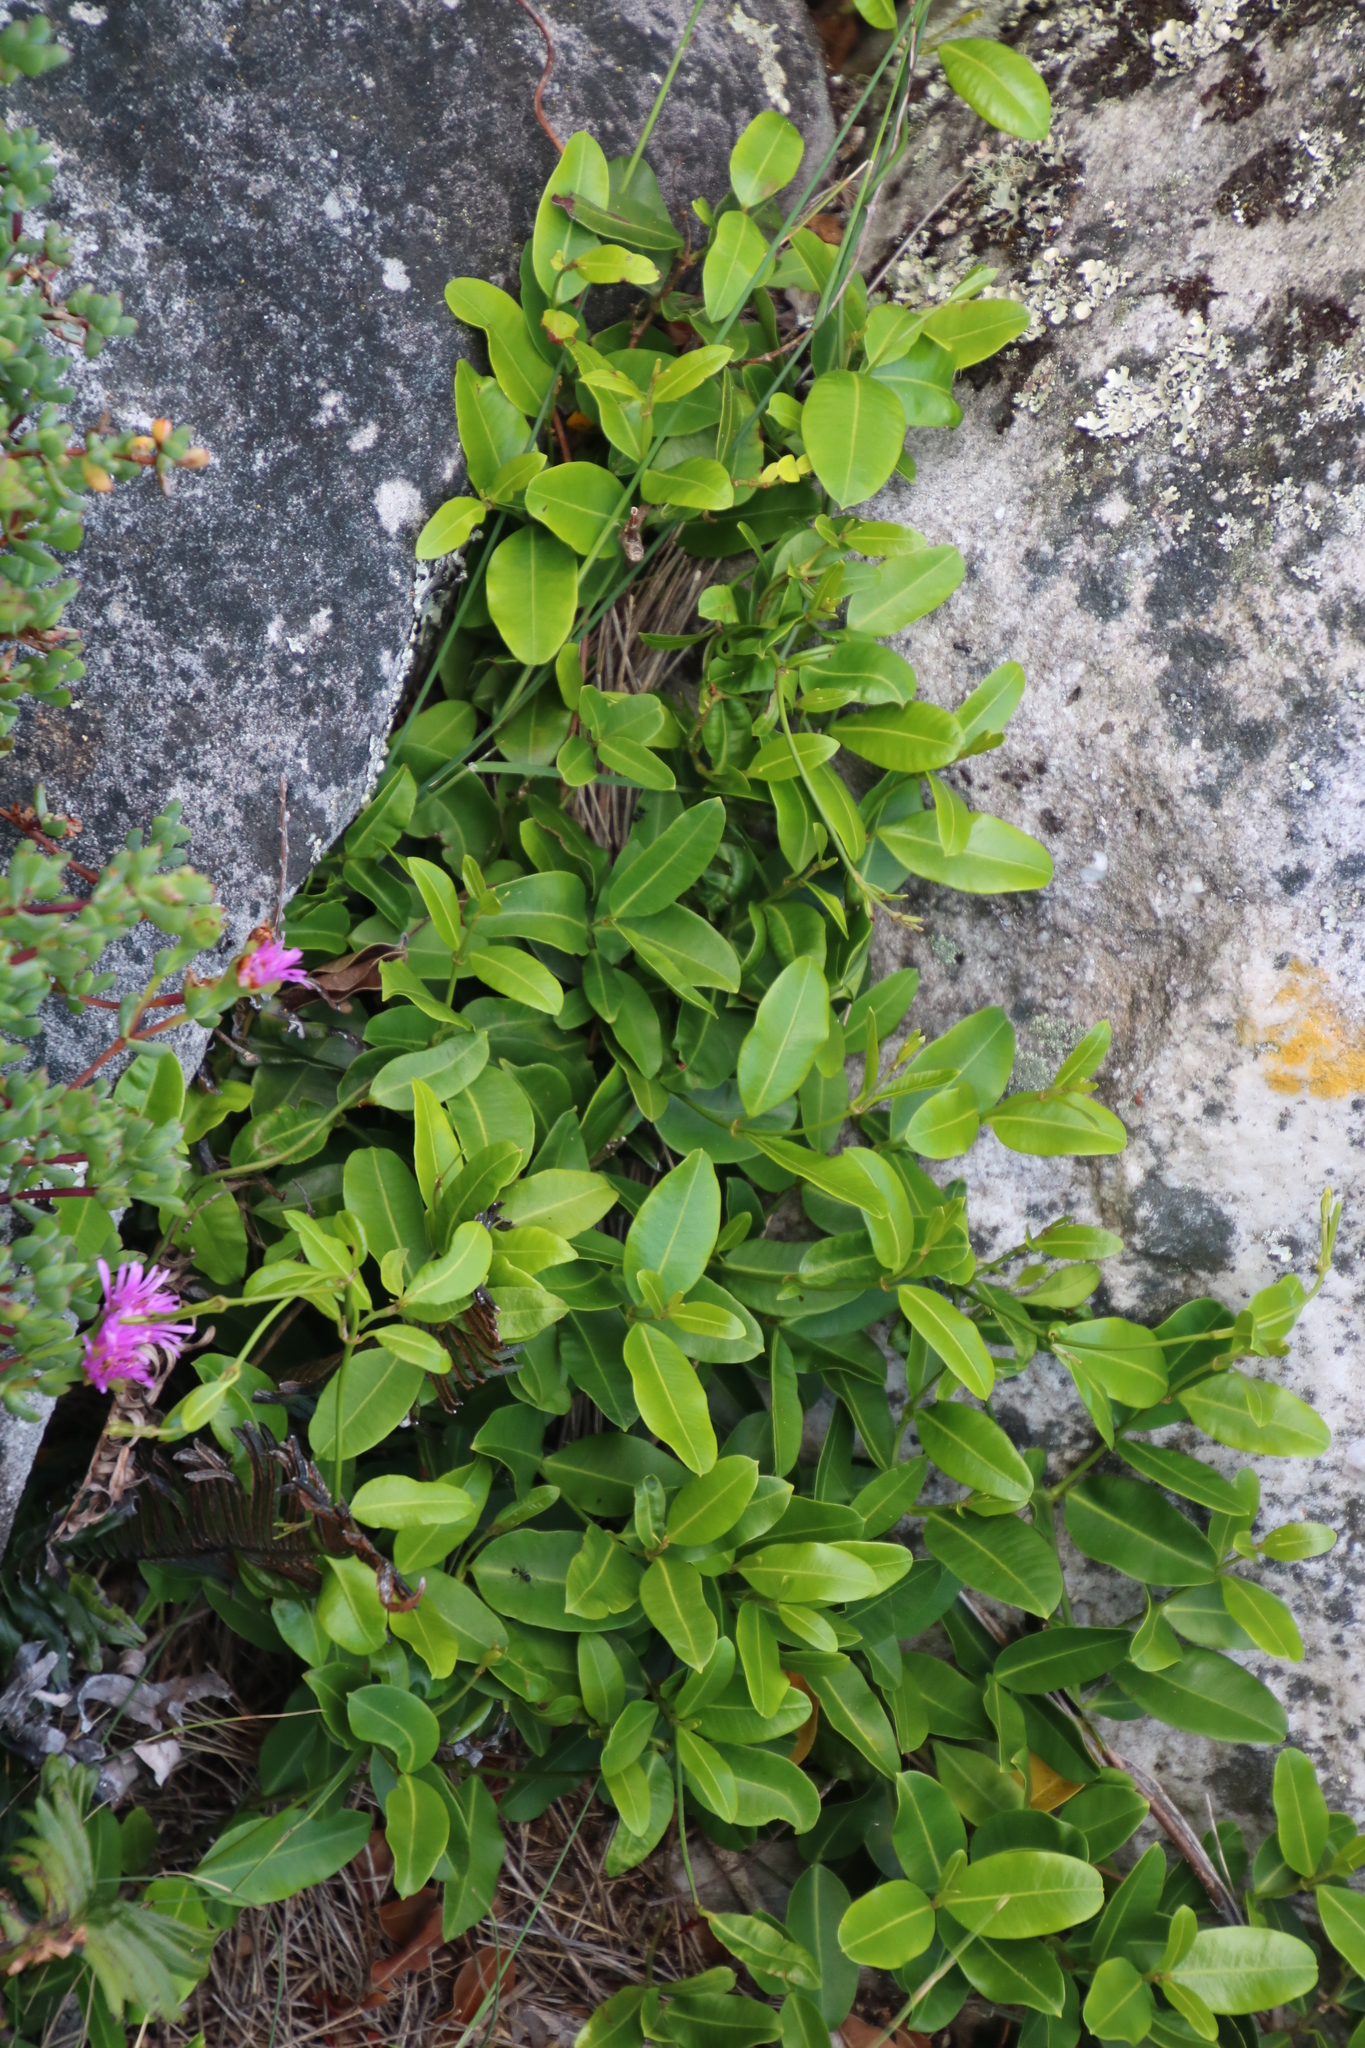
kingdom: Plantae
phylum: Tracheophyta
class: Magnoliopsida
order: Gentianales
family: Apocynaceae
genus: Secamone
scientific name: Secamone alpini
